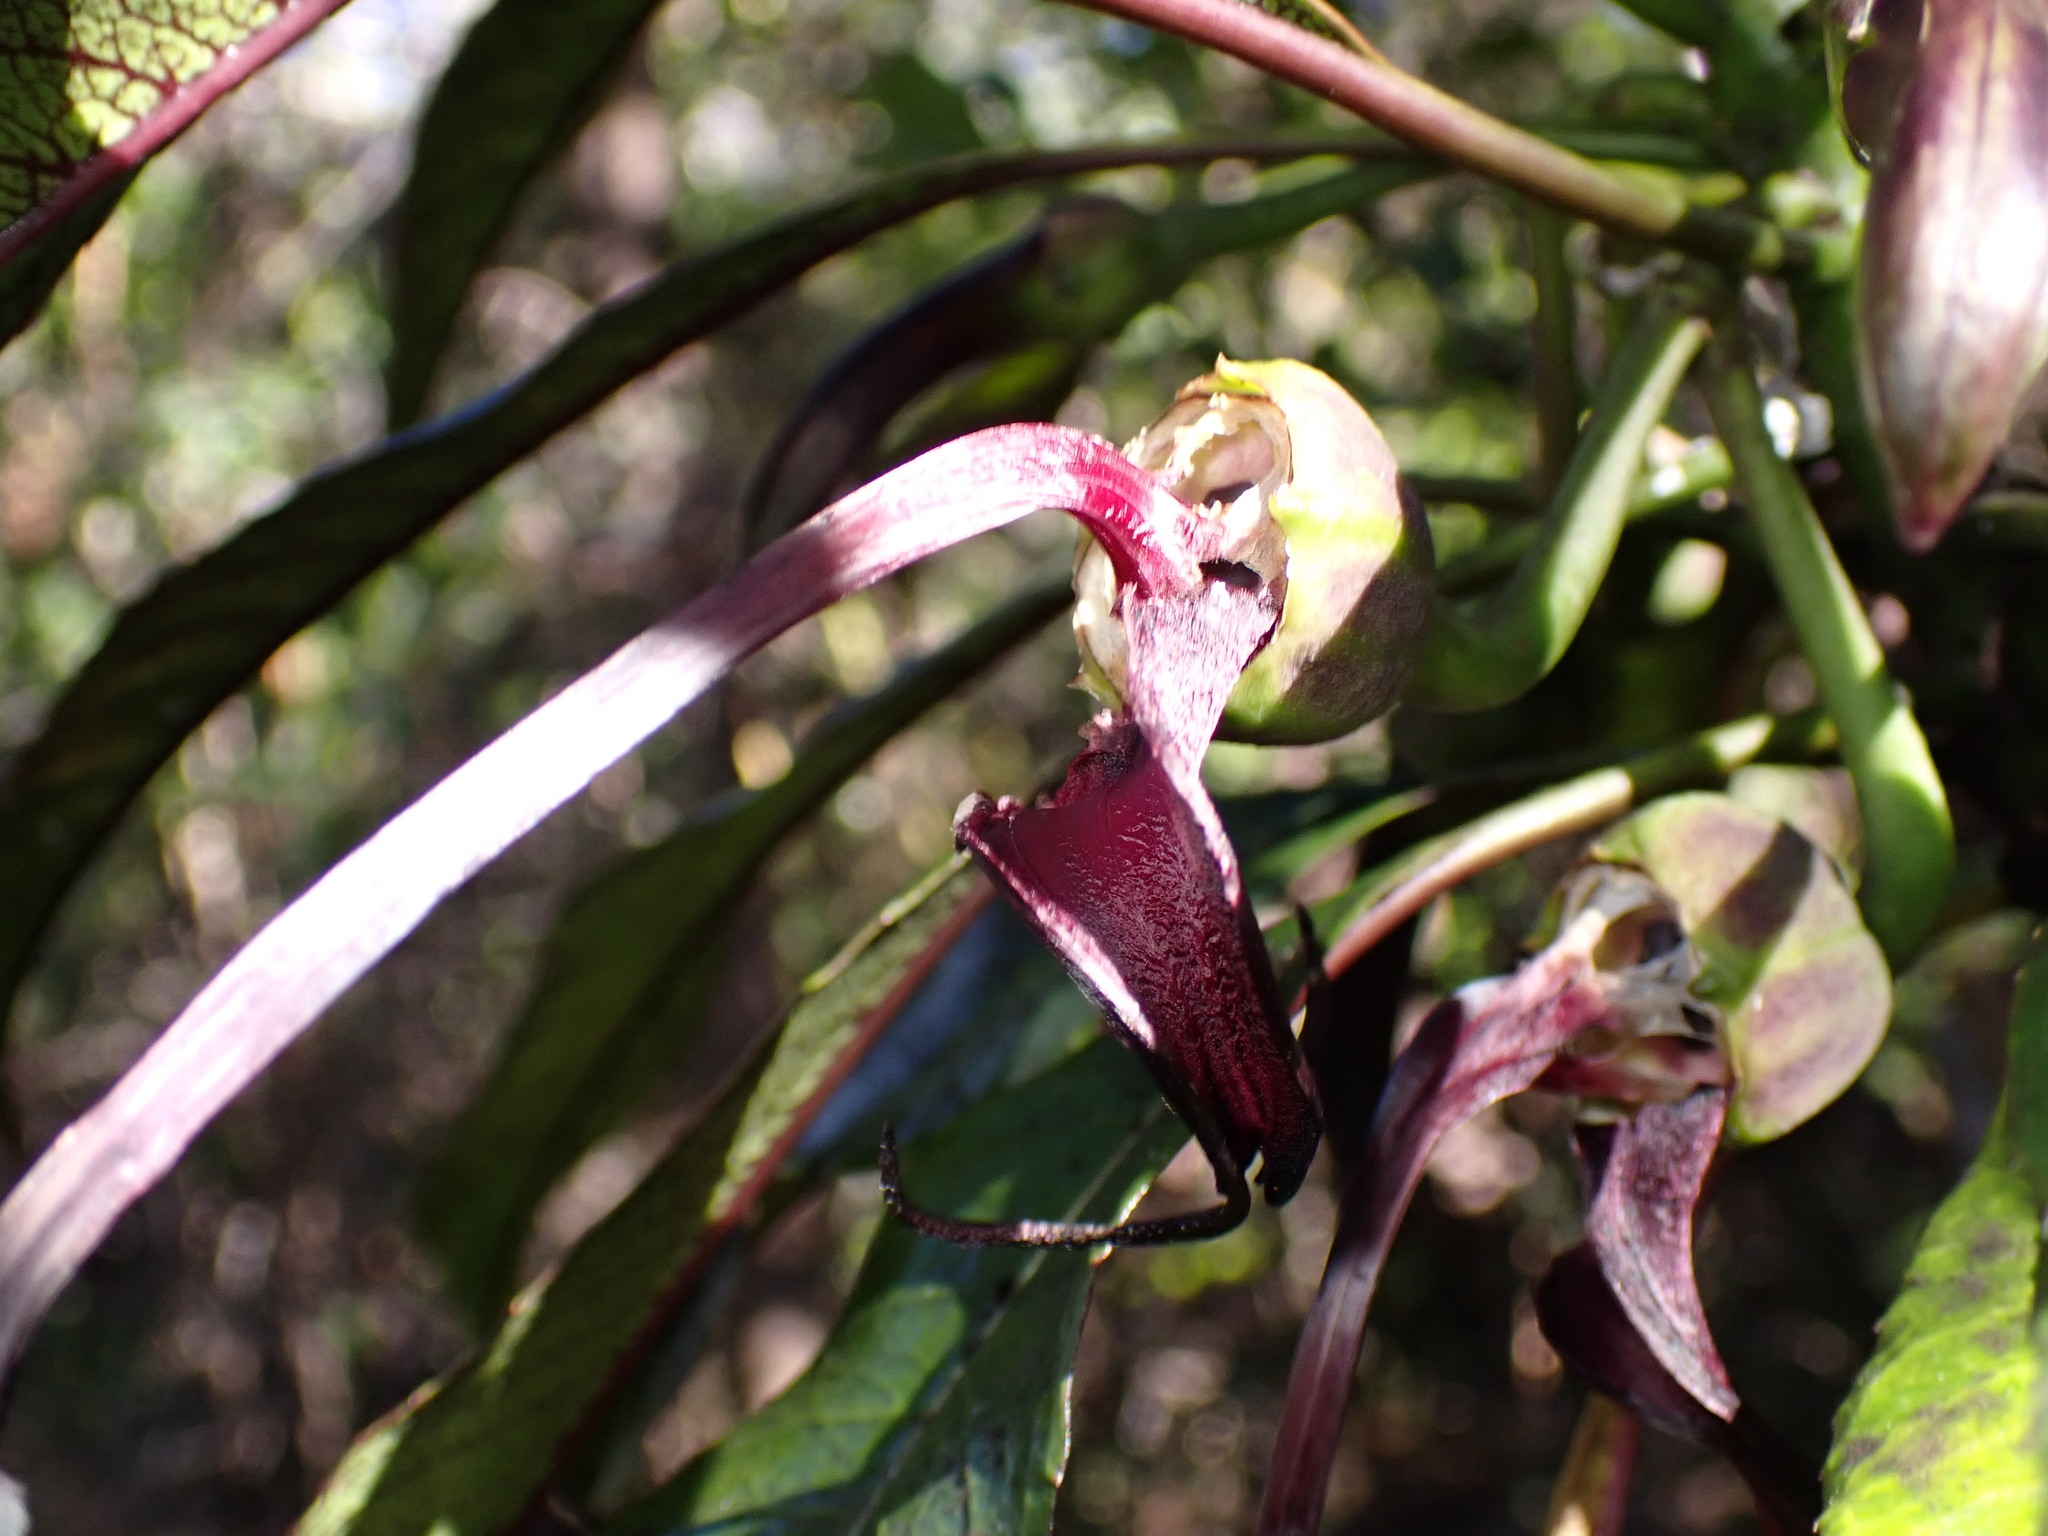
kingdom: Plantae
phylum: Tracheophyta
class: Magnoliopsida
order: Asterales
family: Campanulaceae
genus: Clermontia
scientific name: Clermontia peleana
